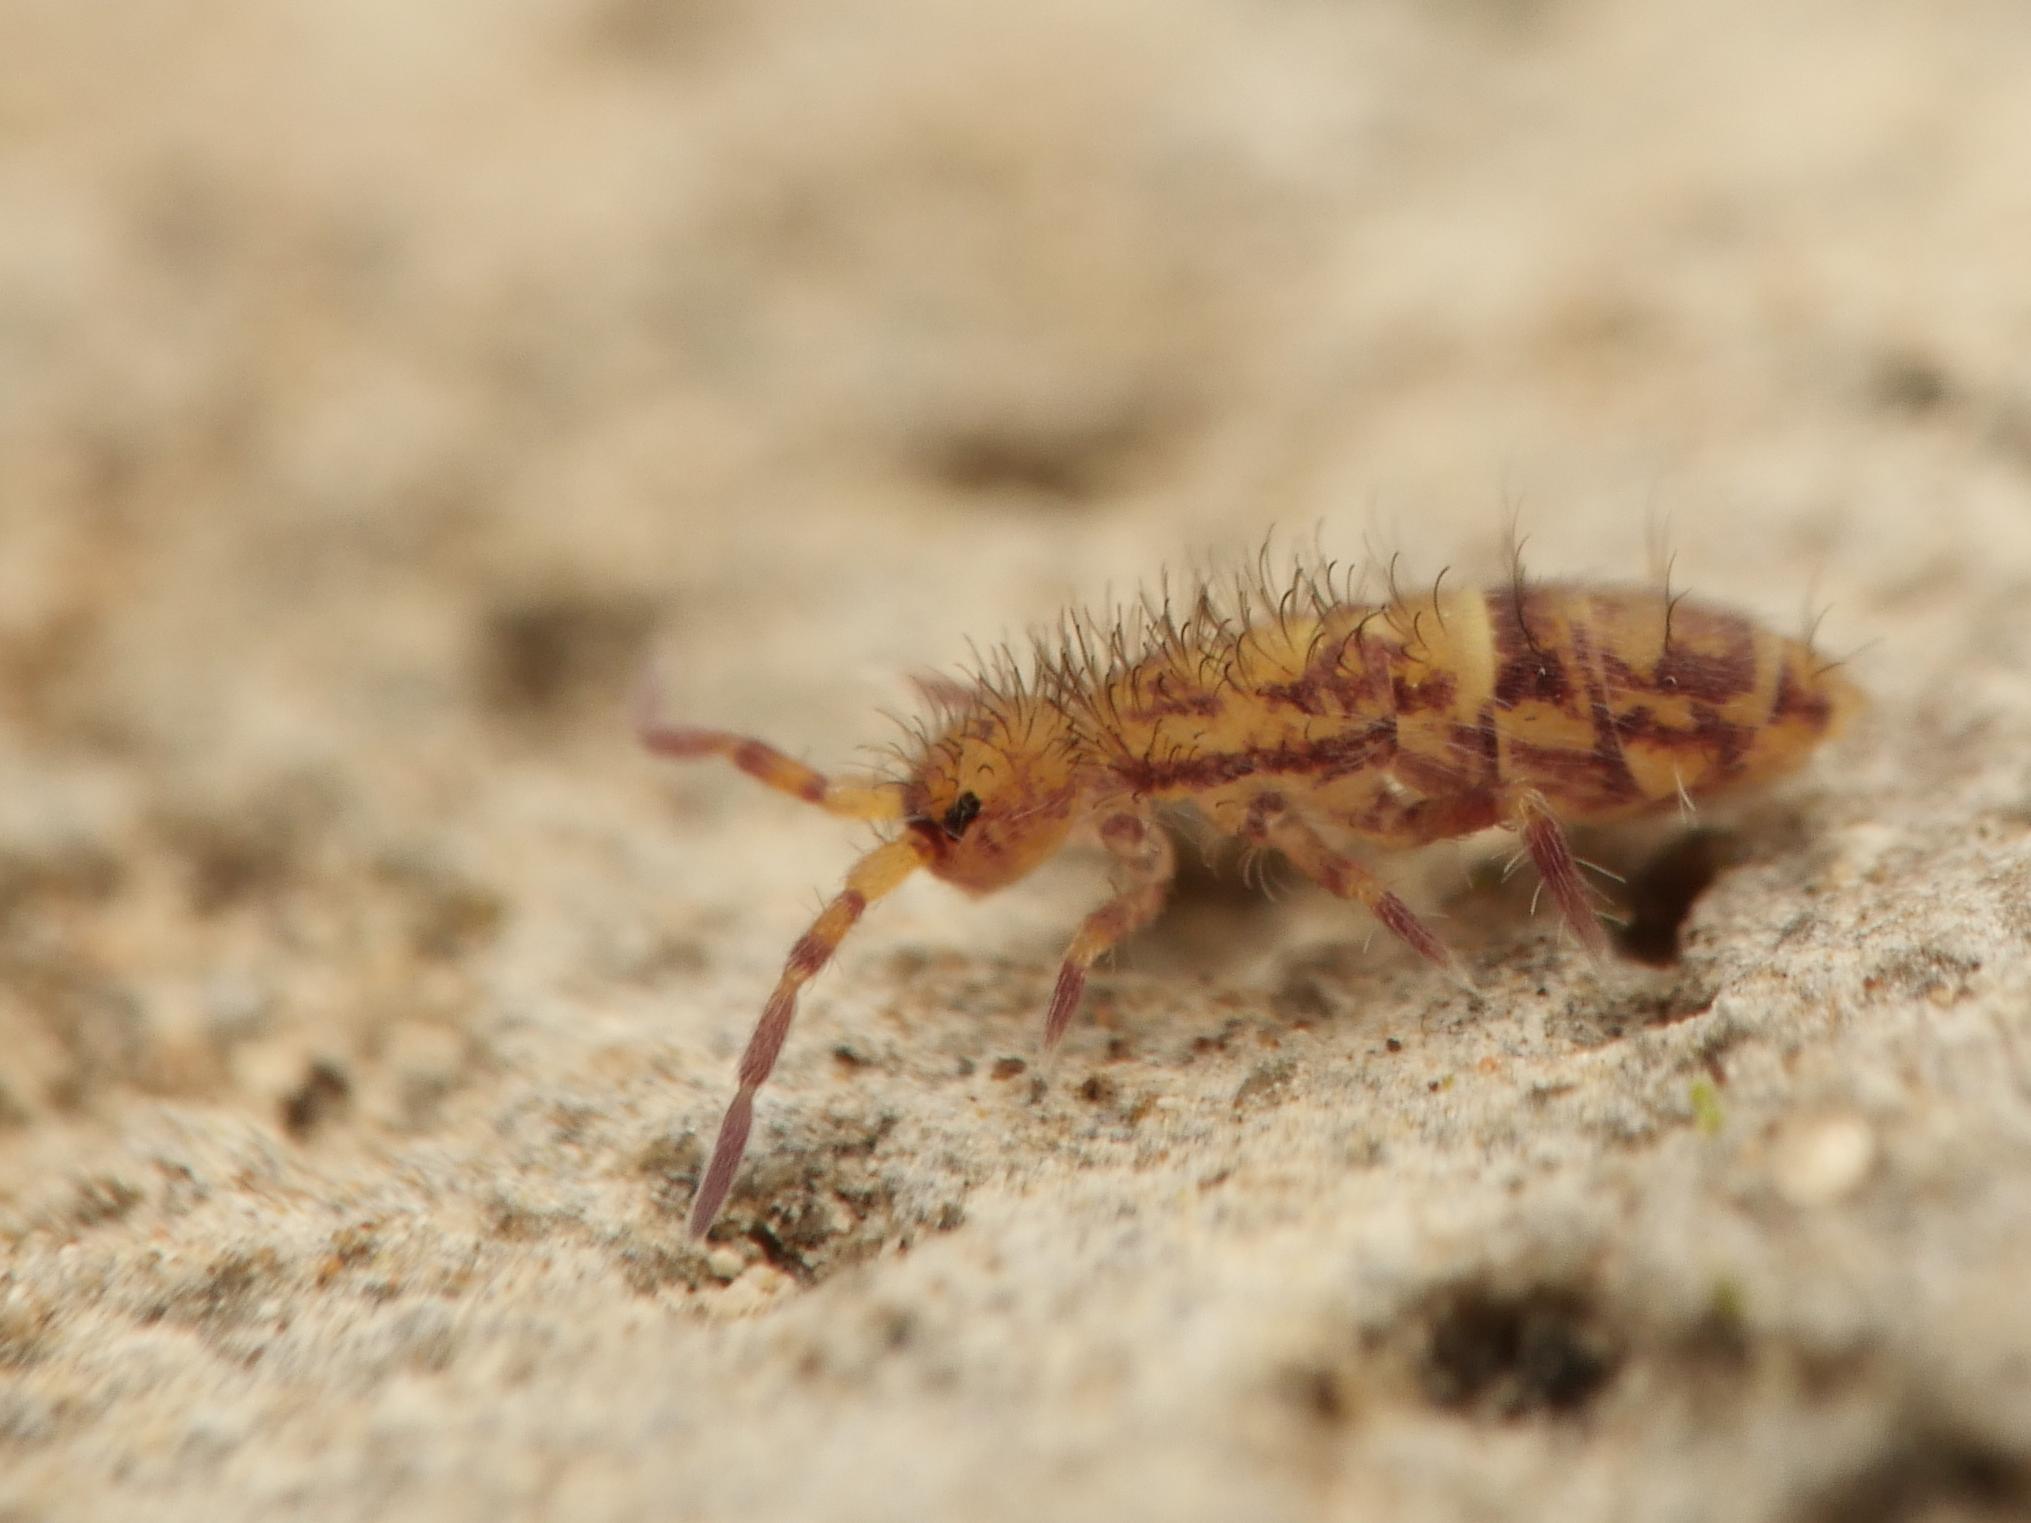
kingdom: Animalia
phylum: Arthropoda
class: Collembola
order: Entomobryomorpha
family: Orchesellidae
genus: Orchesella
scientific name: Orchesella cincta
